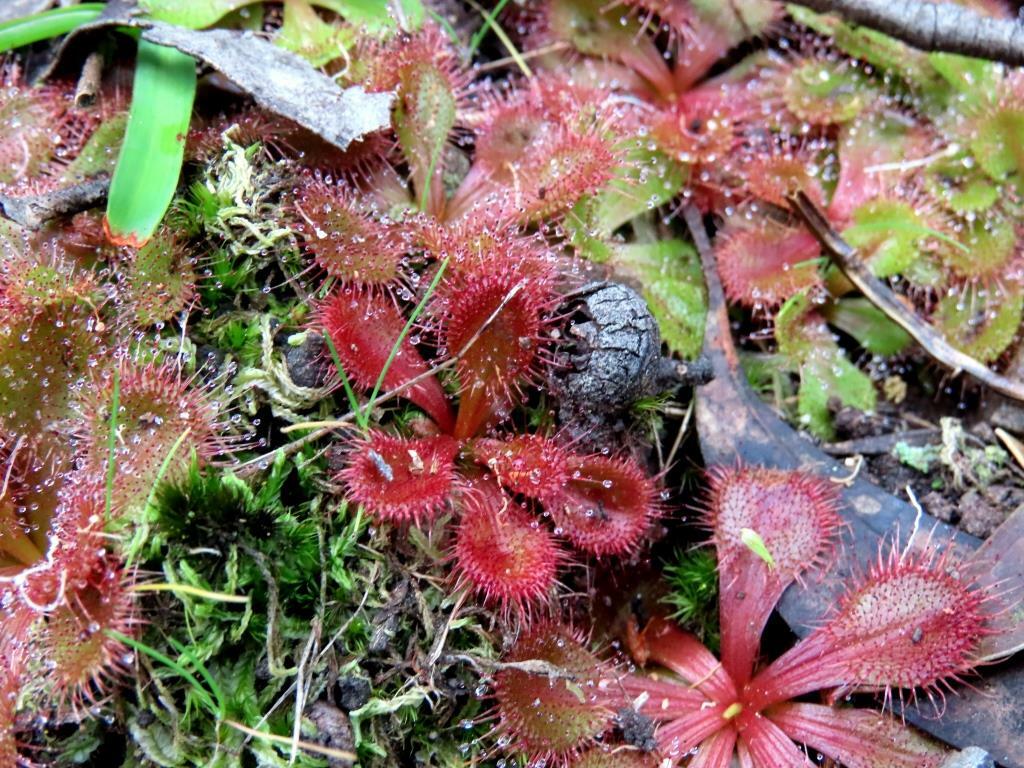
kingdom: Plantae
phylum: Tracheophyta
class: Magnoliopsida
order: Caryophyllales
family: Droseraceae
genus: Drosera
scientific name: Drosera aberrans
